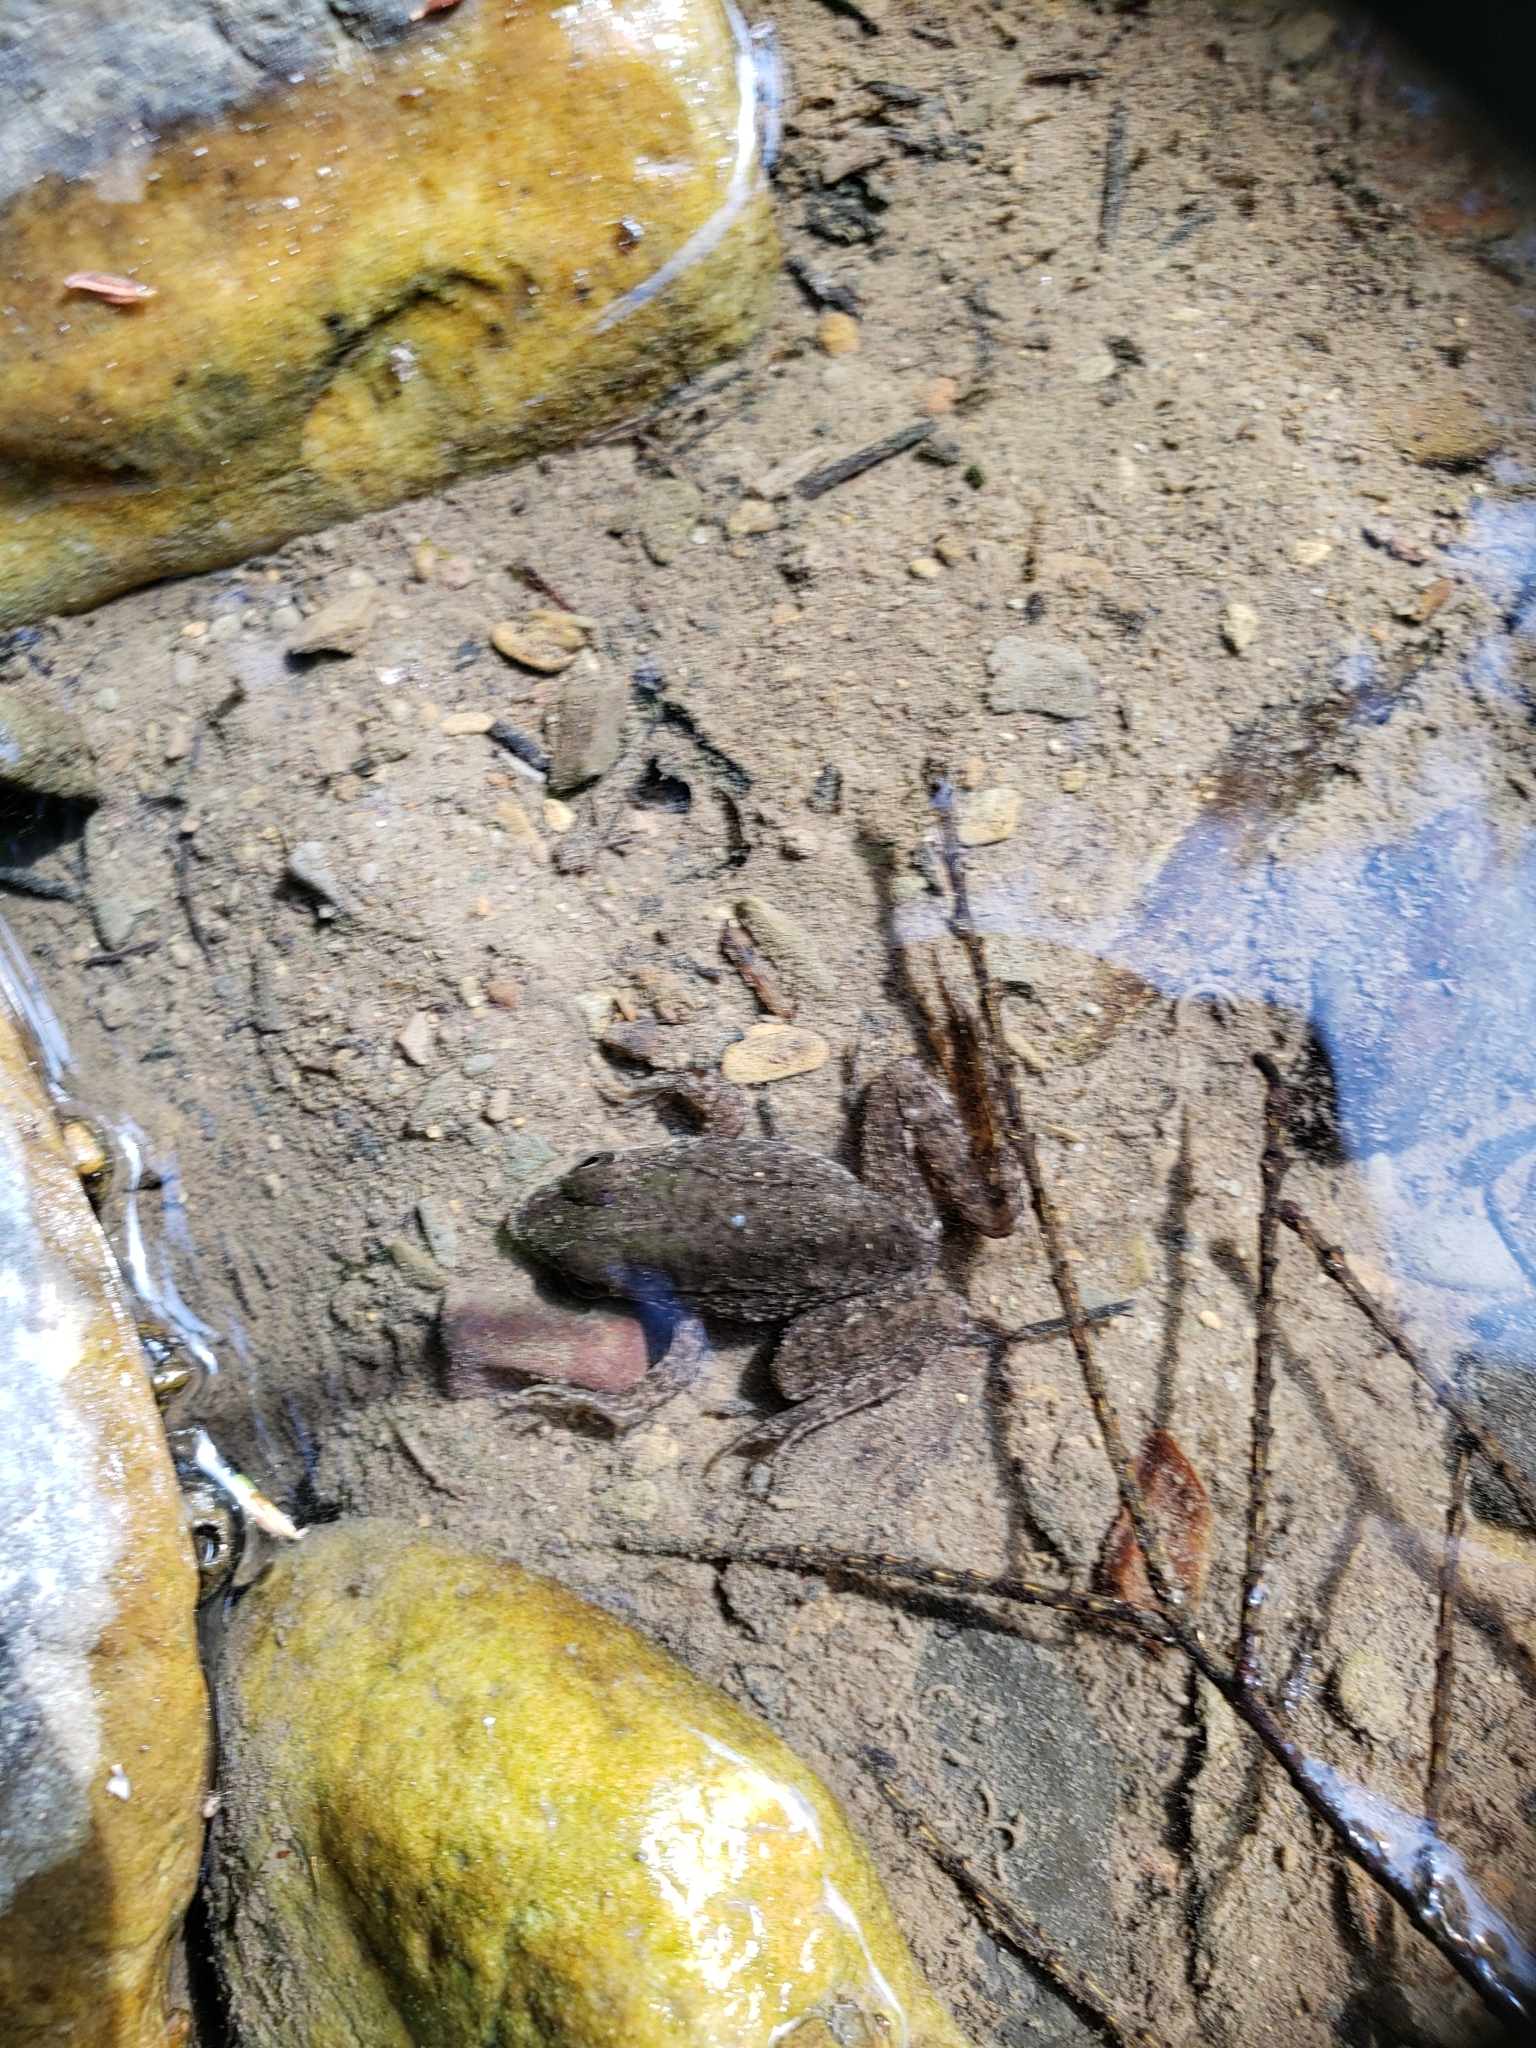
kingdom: Animalia
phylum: Chordata
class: Amphibia
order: Anura
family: Ranidae
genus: Lithobates
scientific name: Lithobates clamitans
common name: Green frog
